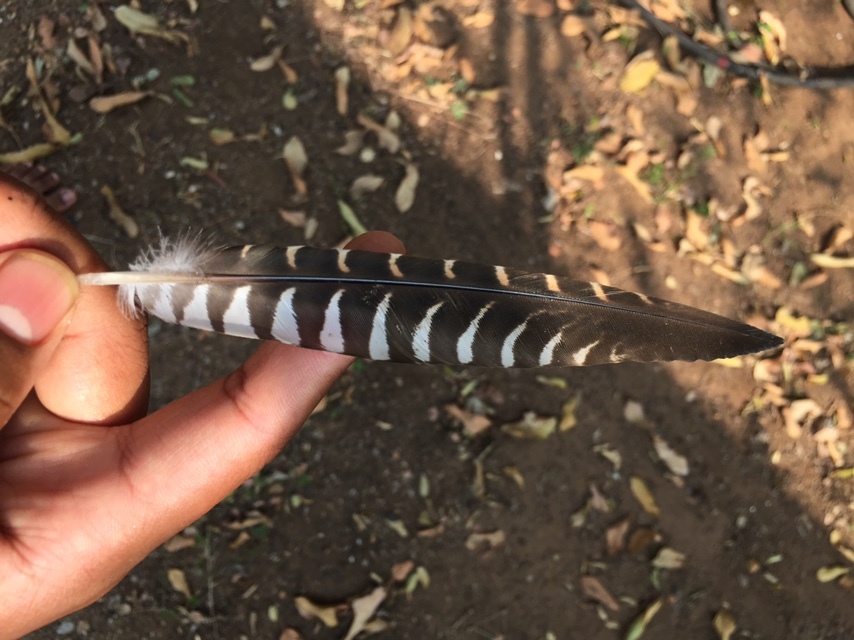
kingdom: Animalia
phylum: Chordata
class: Aves
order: Cuculiformes
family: Cuculidae
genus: Eudynamys
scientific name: Eudynamys scolopaceus
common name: Asian koel
